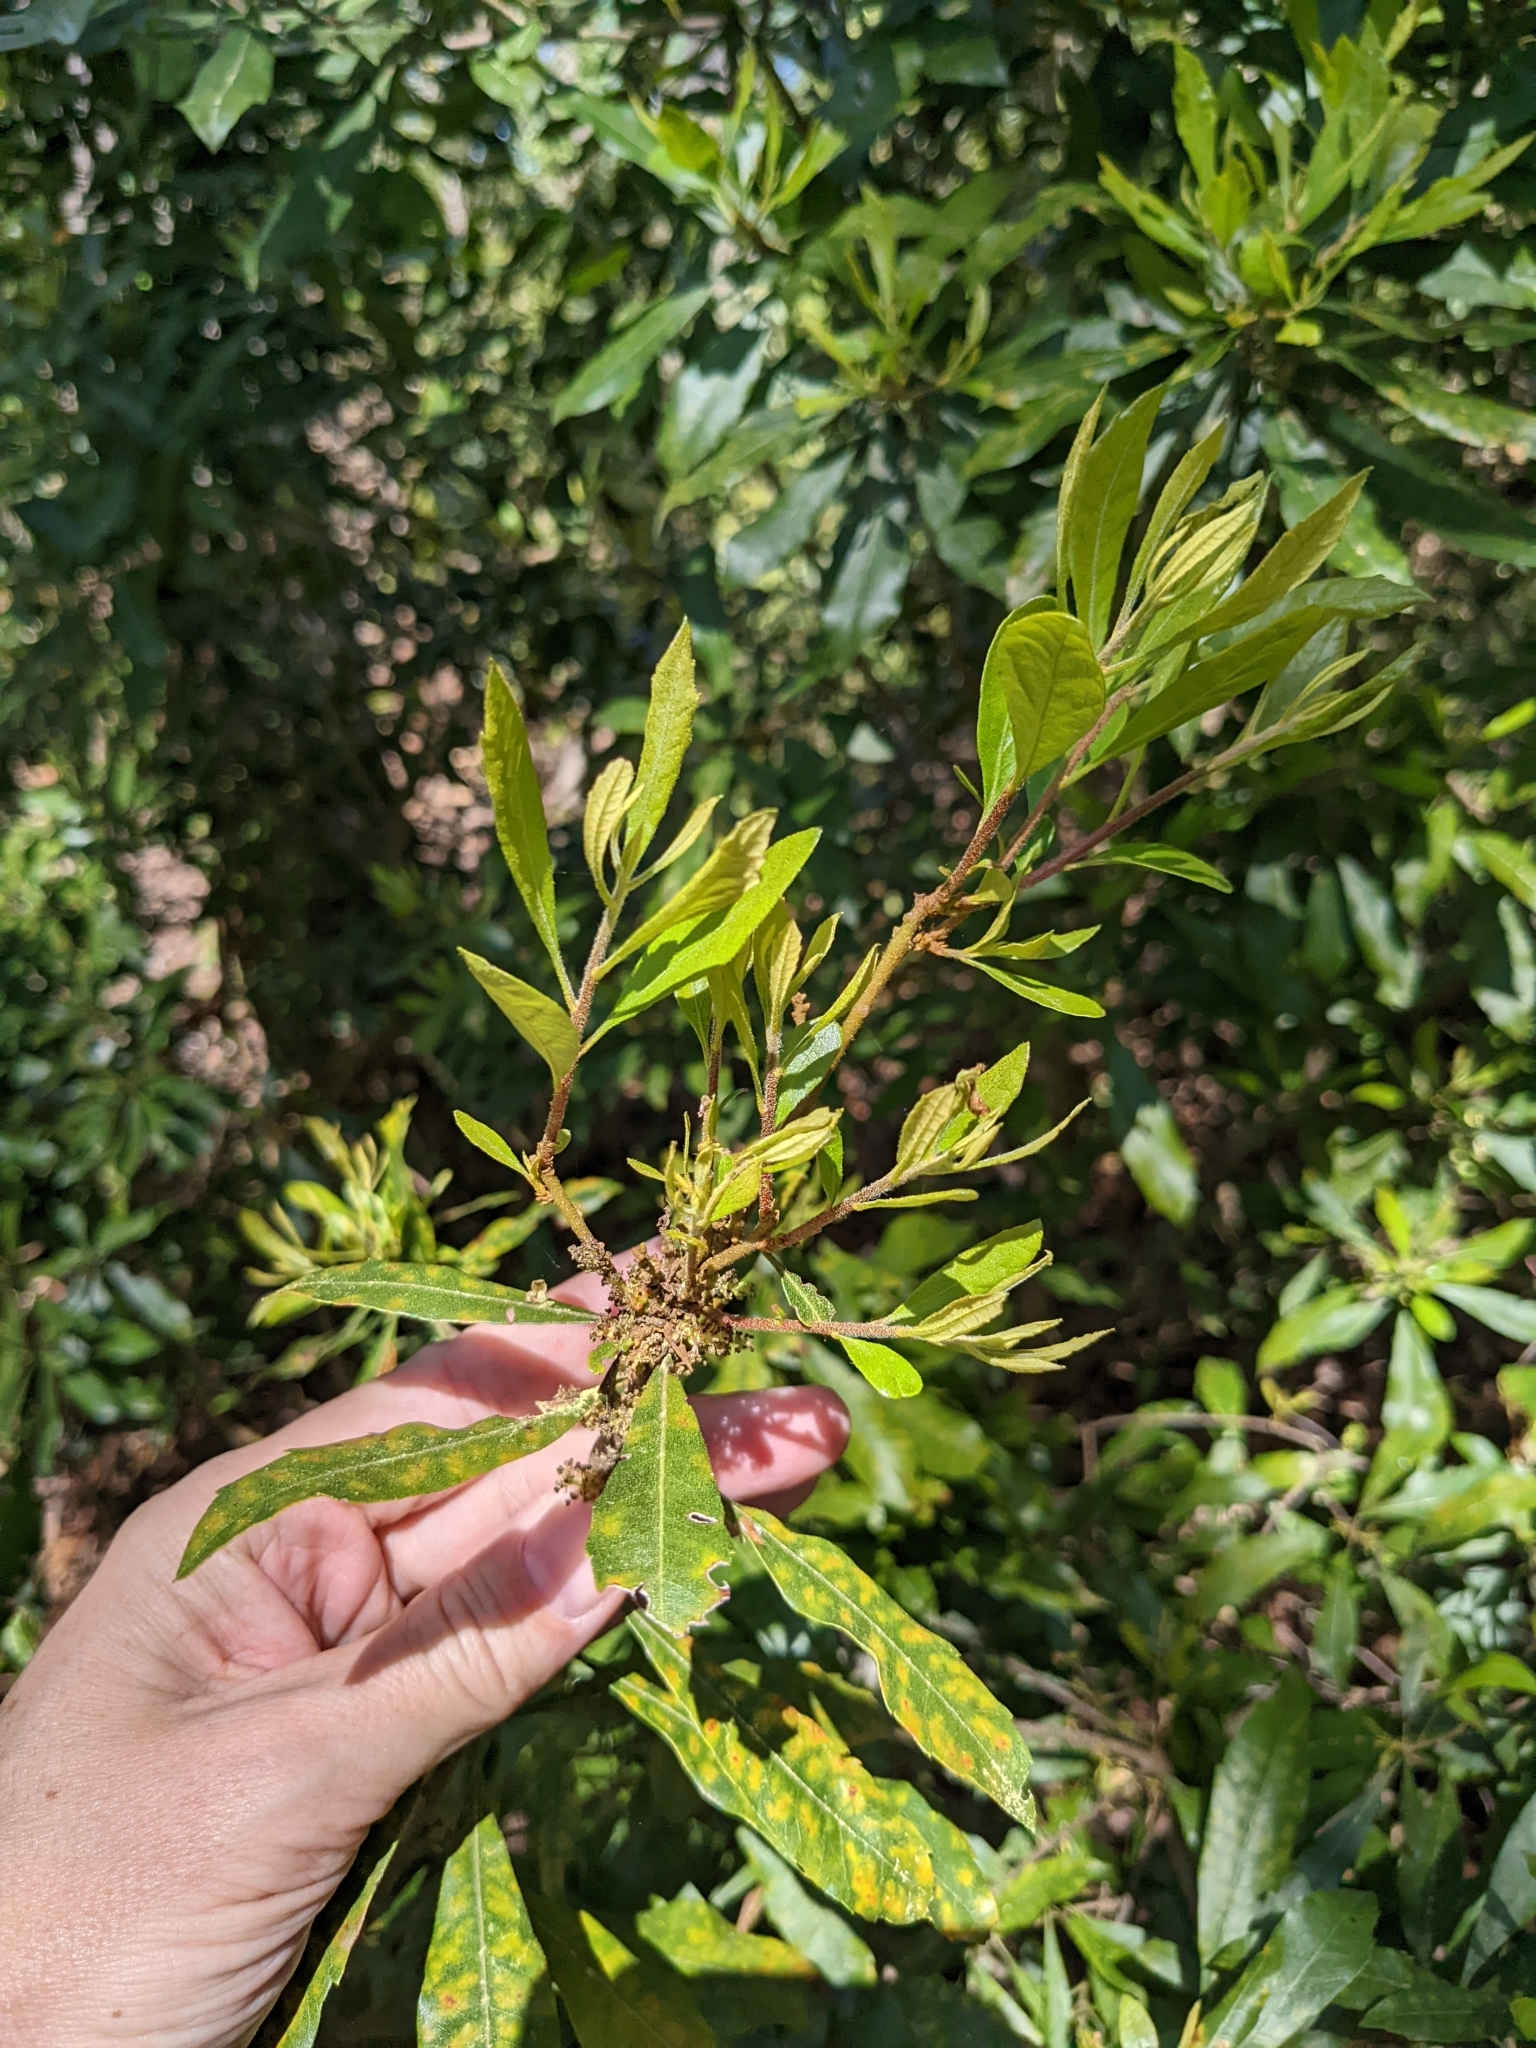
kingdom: Plantae
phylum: Tracheophyta
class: Magnoliopsida
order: Fagales
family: Myricaceae
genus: Morella
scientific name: Morella cerifera
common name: Wax myrtle
